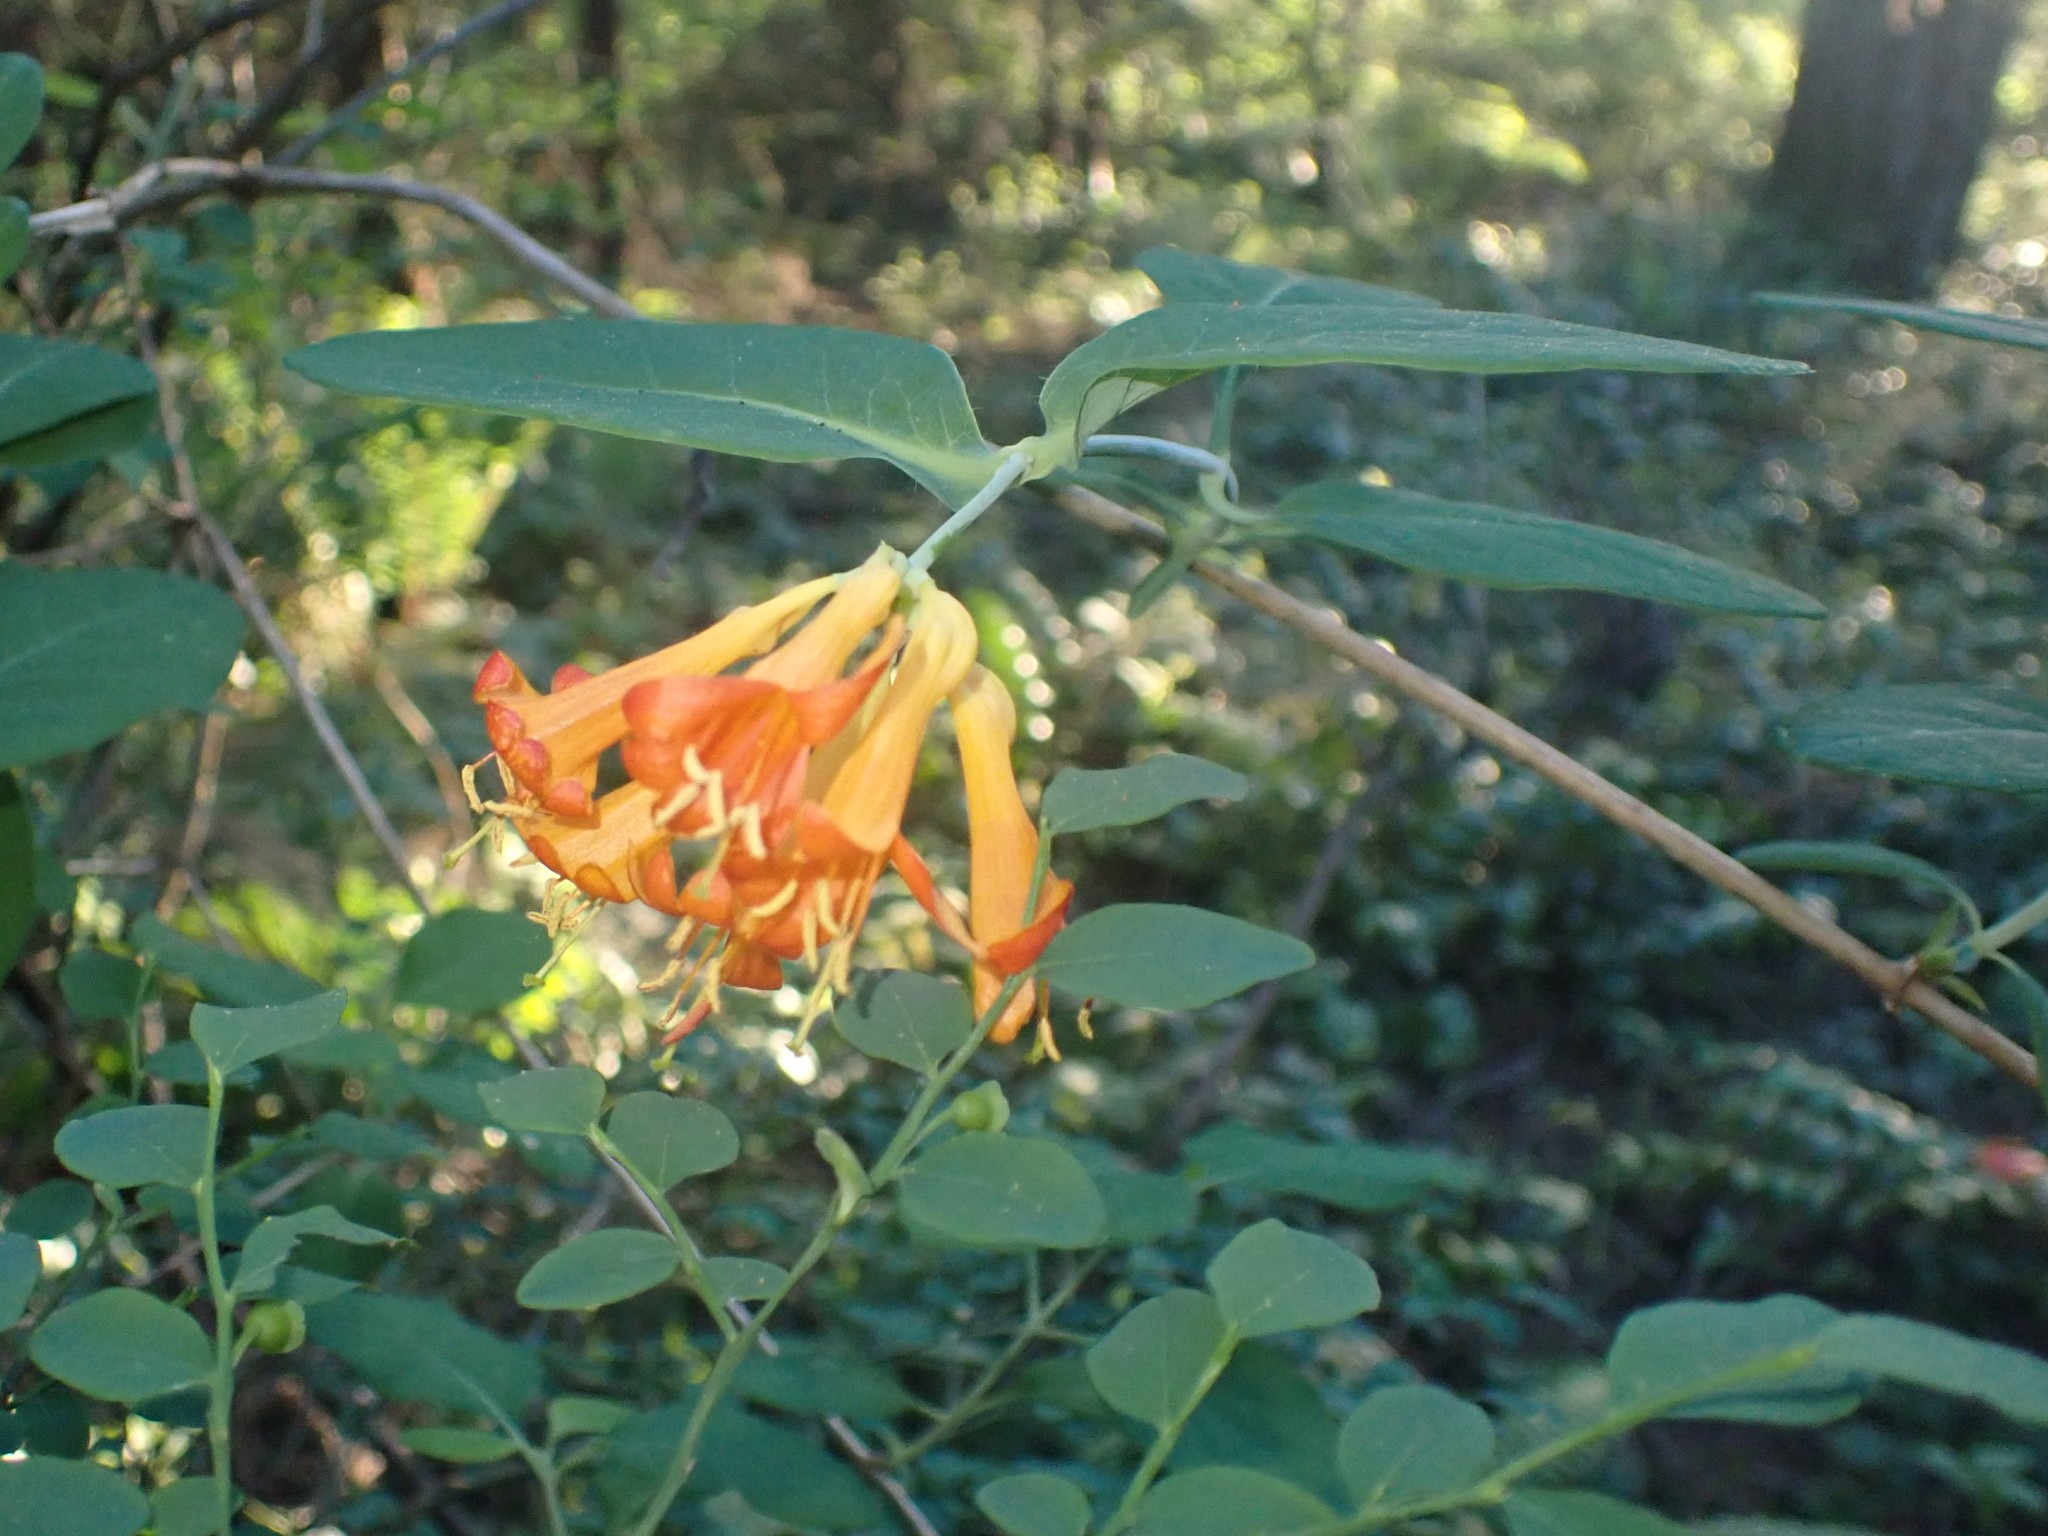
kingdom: Plantae
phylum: Tracheophyta
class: Magnoliopsida
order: Dipsacales
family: Caprifoliaceae
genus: Lonicera
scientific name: Lonicera ciliosa
